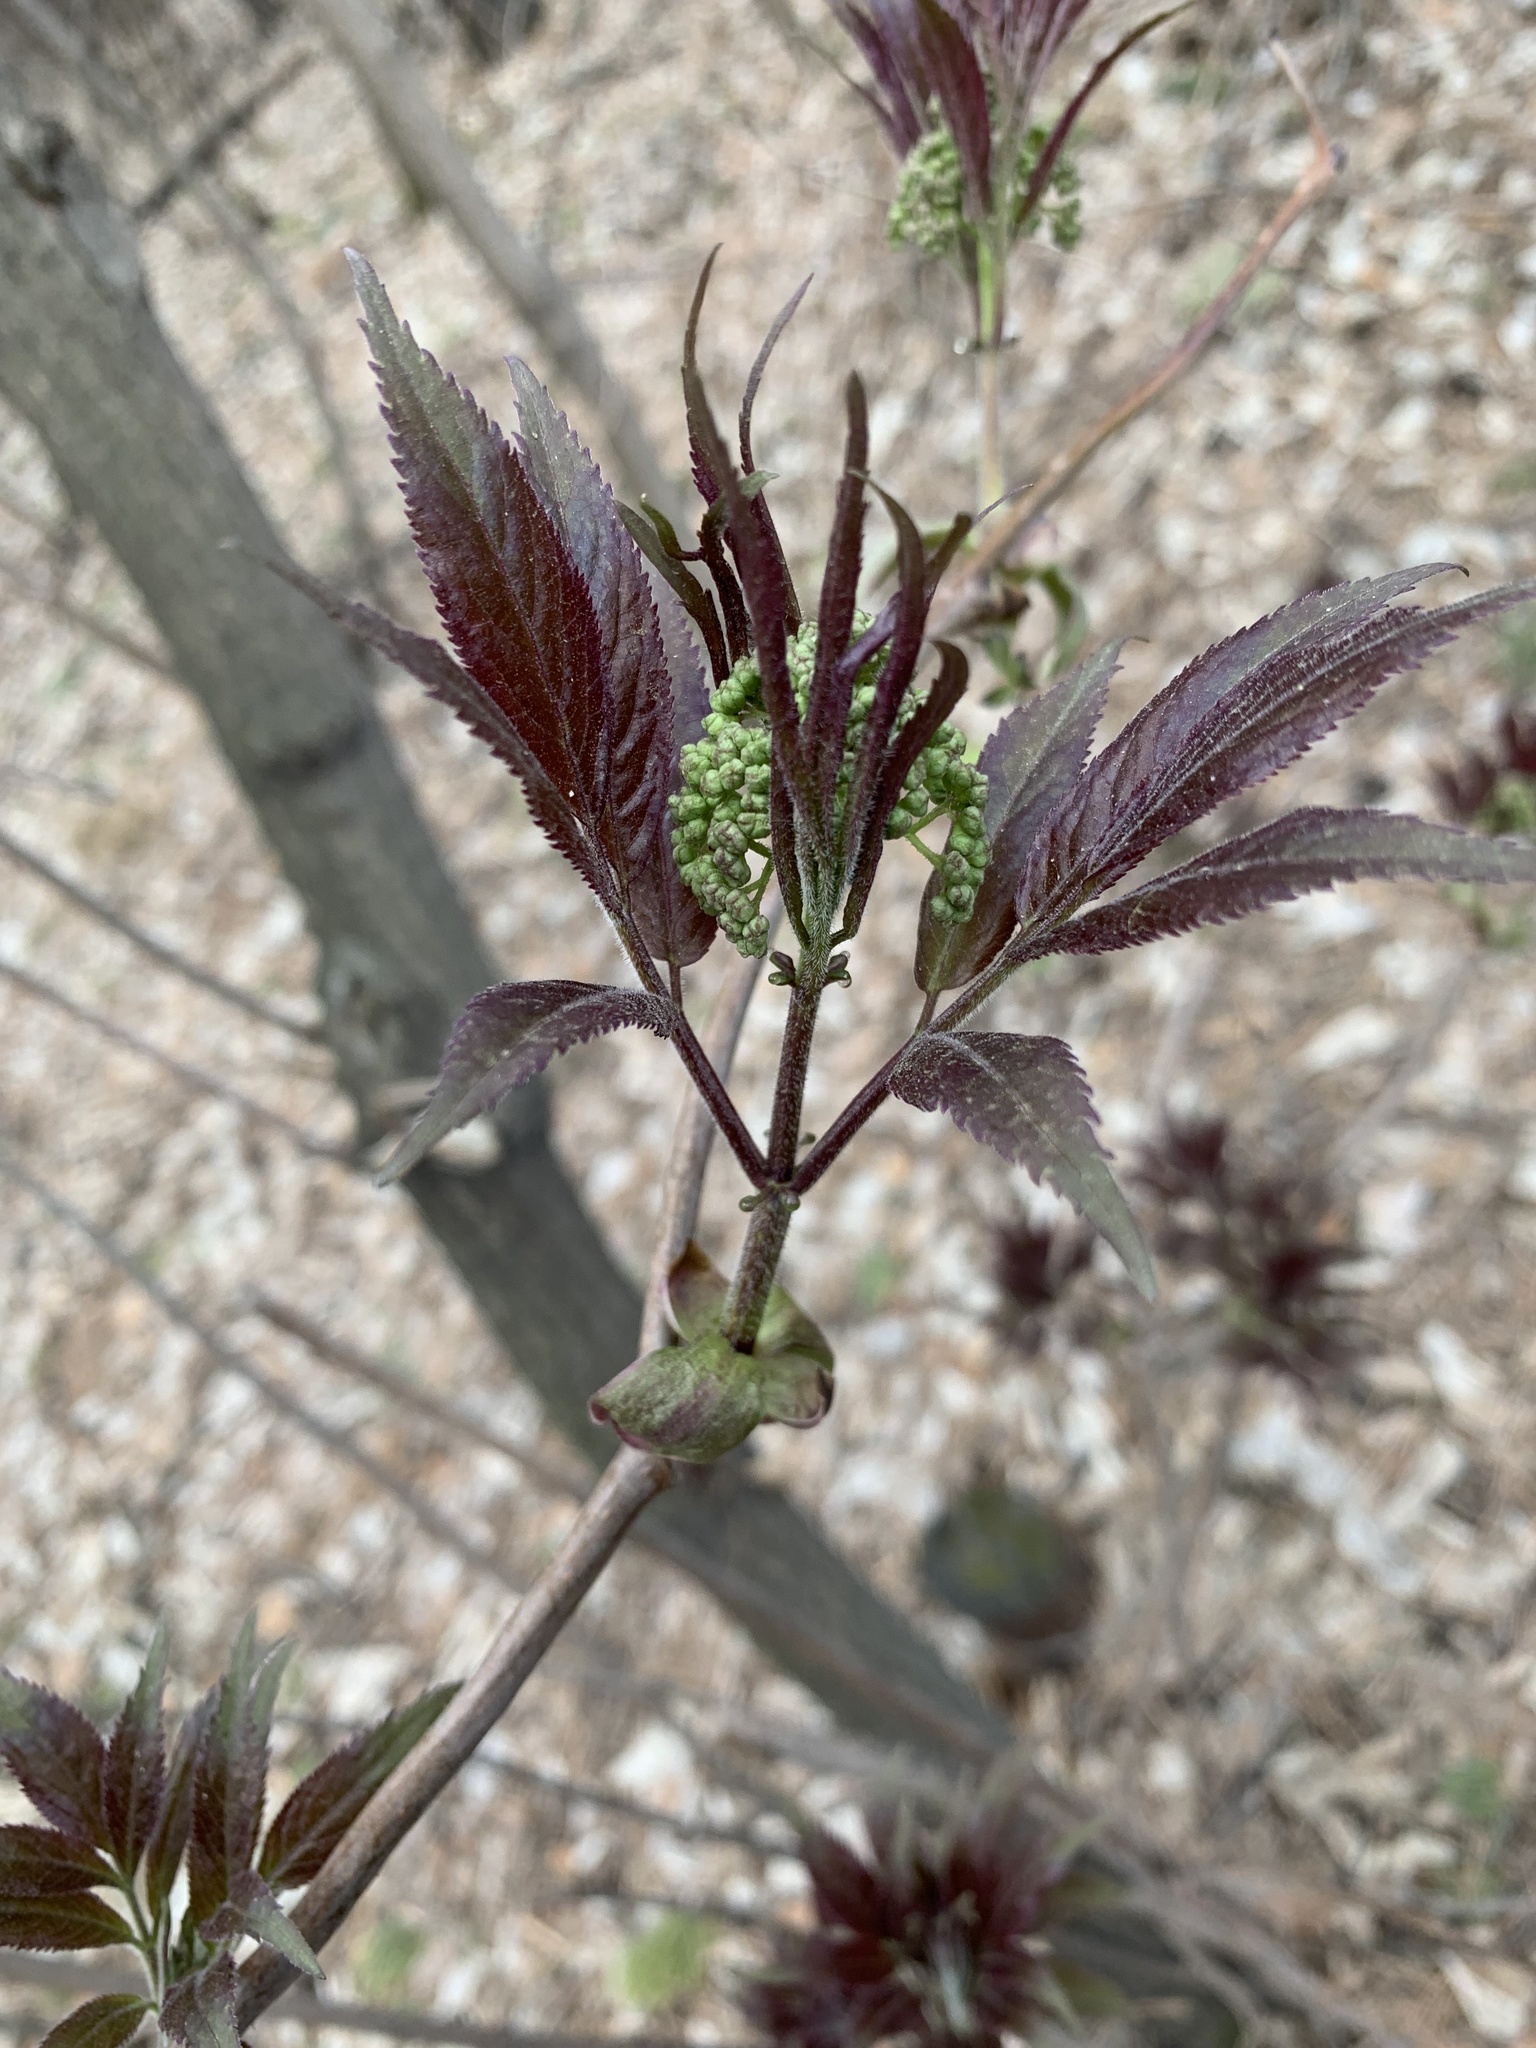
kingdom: Plantae
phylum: Tracheophyta
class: Magnoliopsida
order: Dipsacales
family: Viburnaceae
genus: Sambucus
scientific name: Sambucus sibirica
